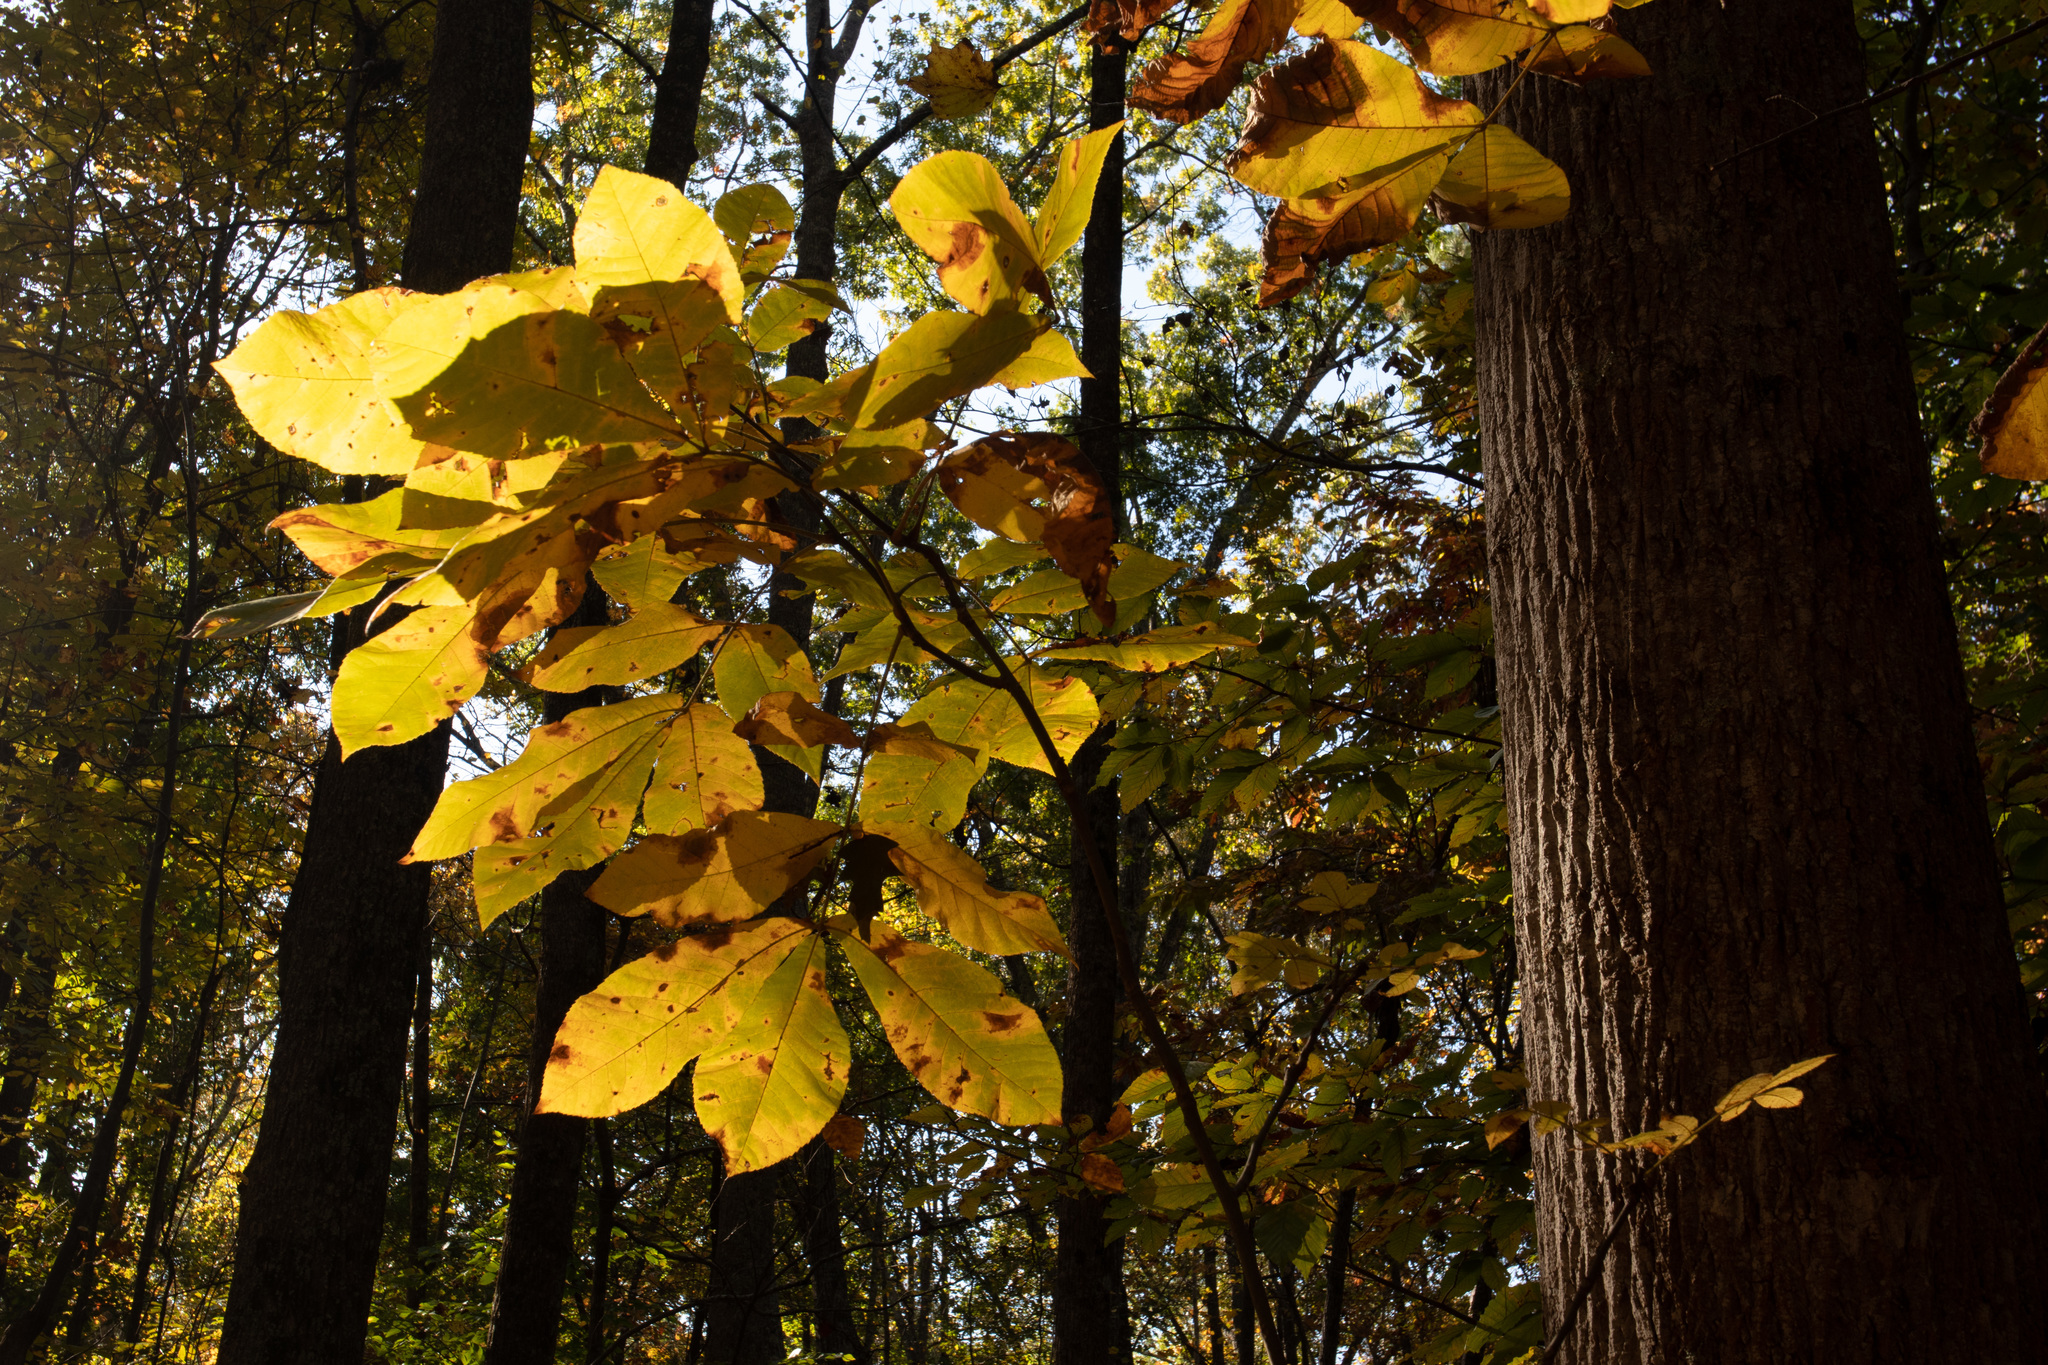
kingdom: Plantae
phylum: Tracheophyta
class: Magnoliopsida
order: Fagales
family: Juglandaceae
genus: Carya
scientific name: Carya alba
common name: Mockernut hickory
